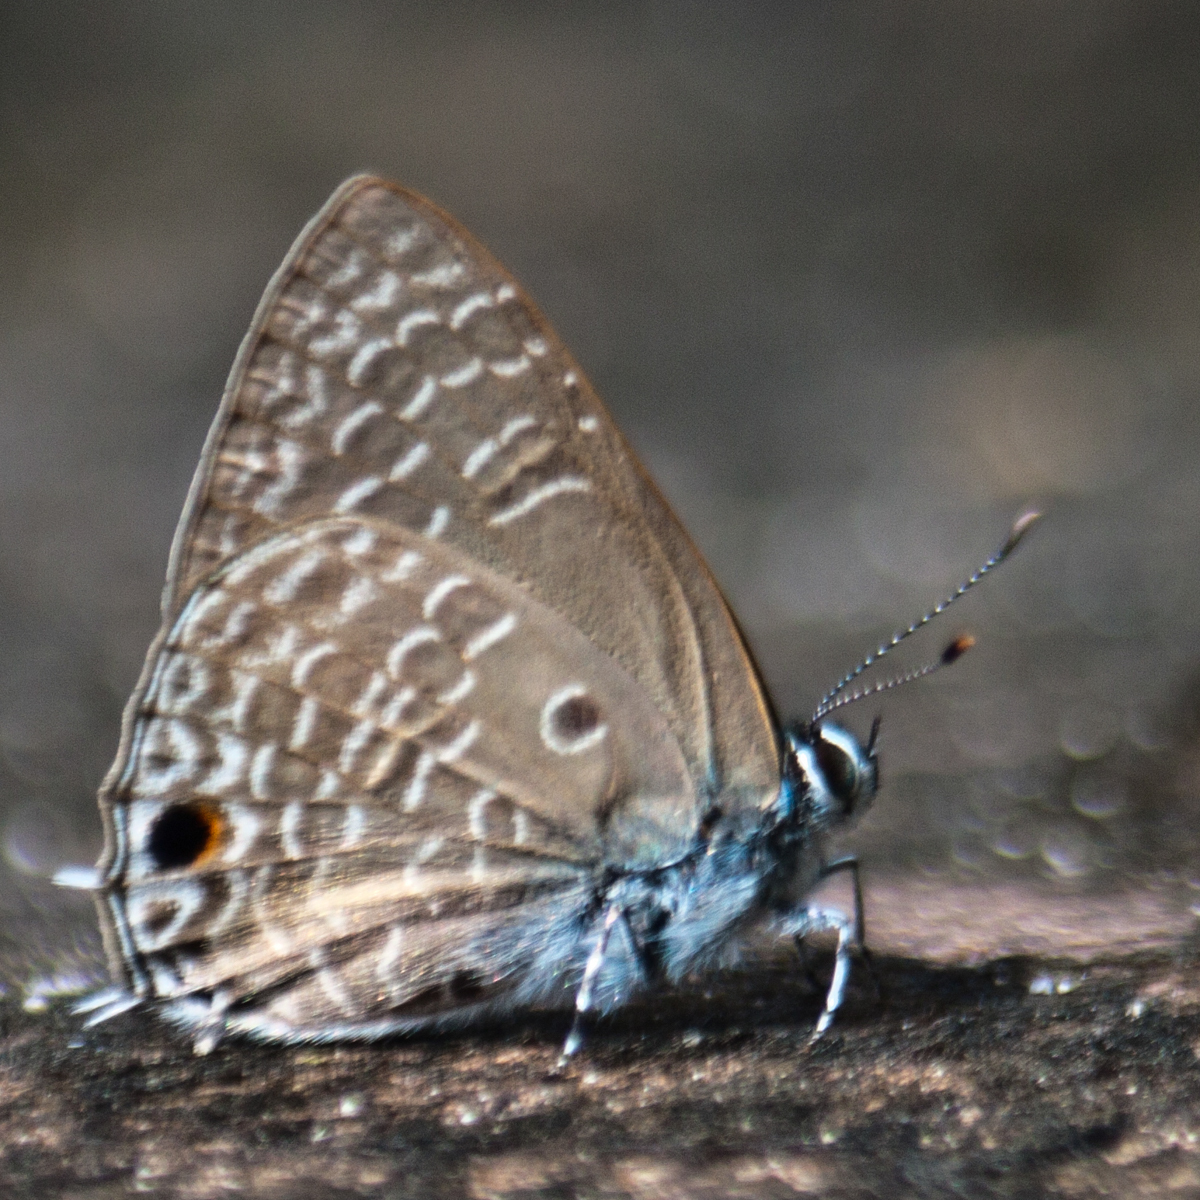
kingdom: Animalia
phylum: Arthropoda
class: Insecta
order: Lepidoptera
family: Lycaenidae
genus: Anthene
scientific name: Anthene lycaenina
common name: Pointed ciliate blue
